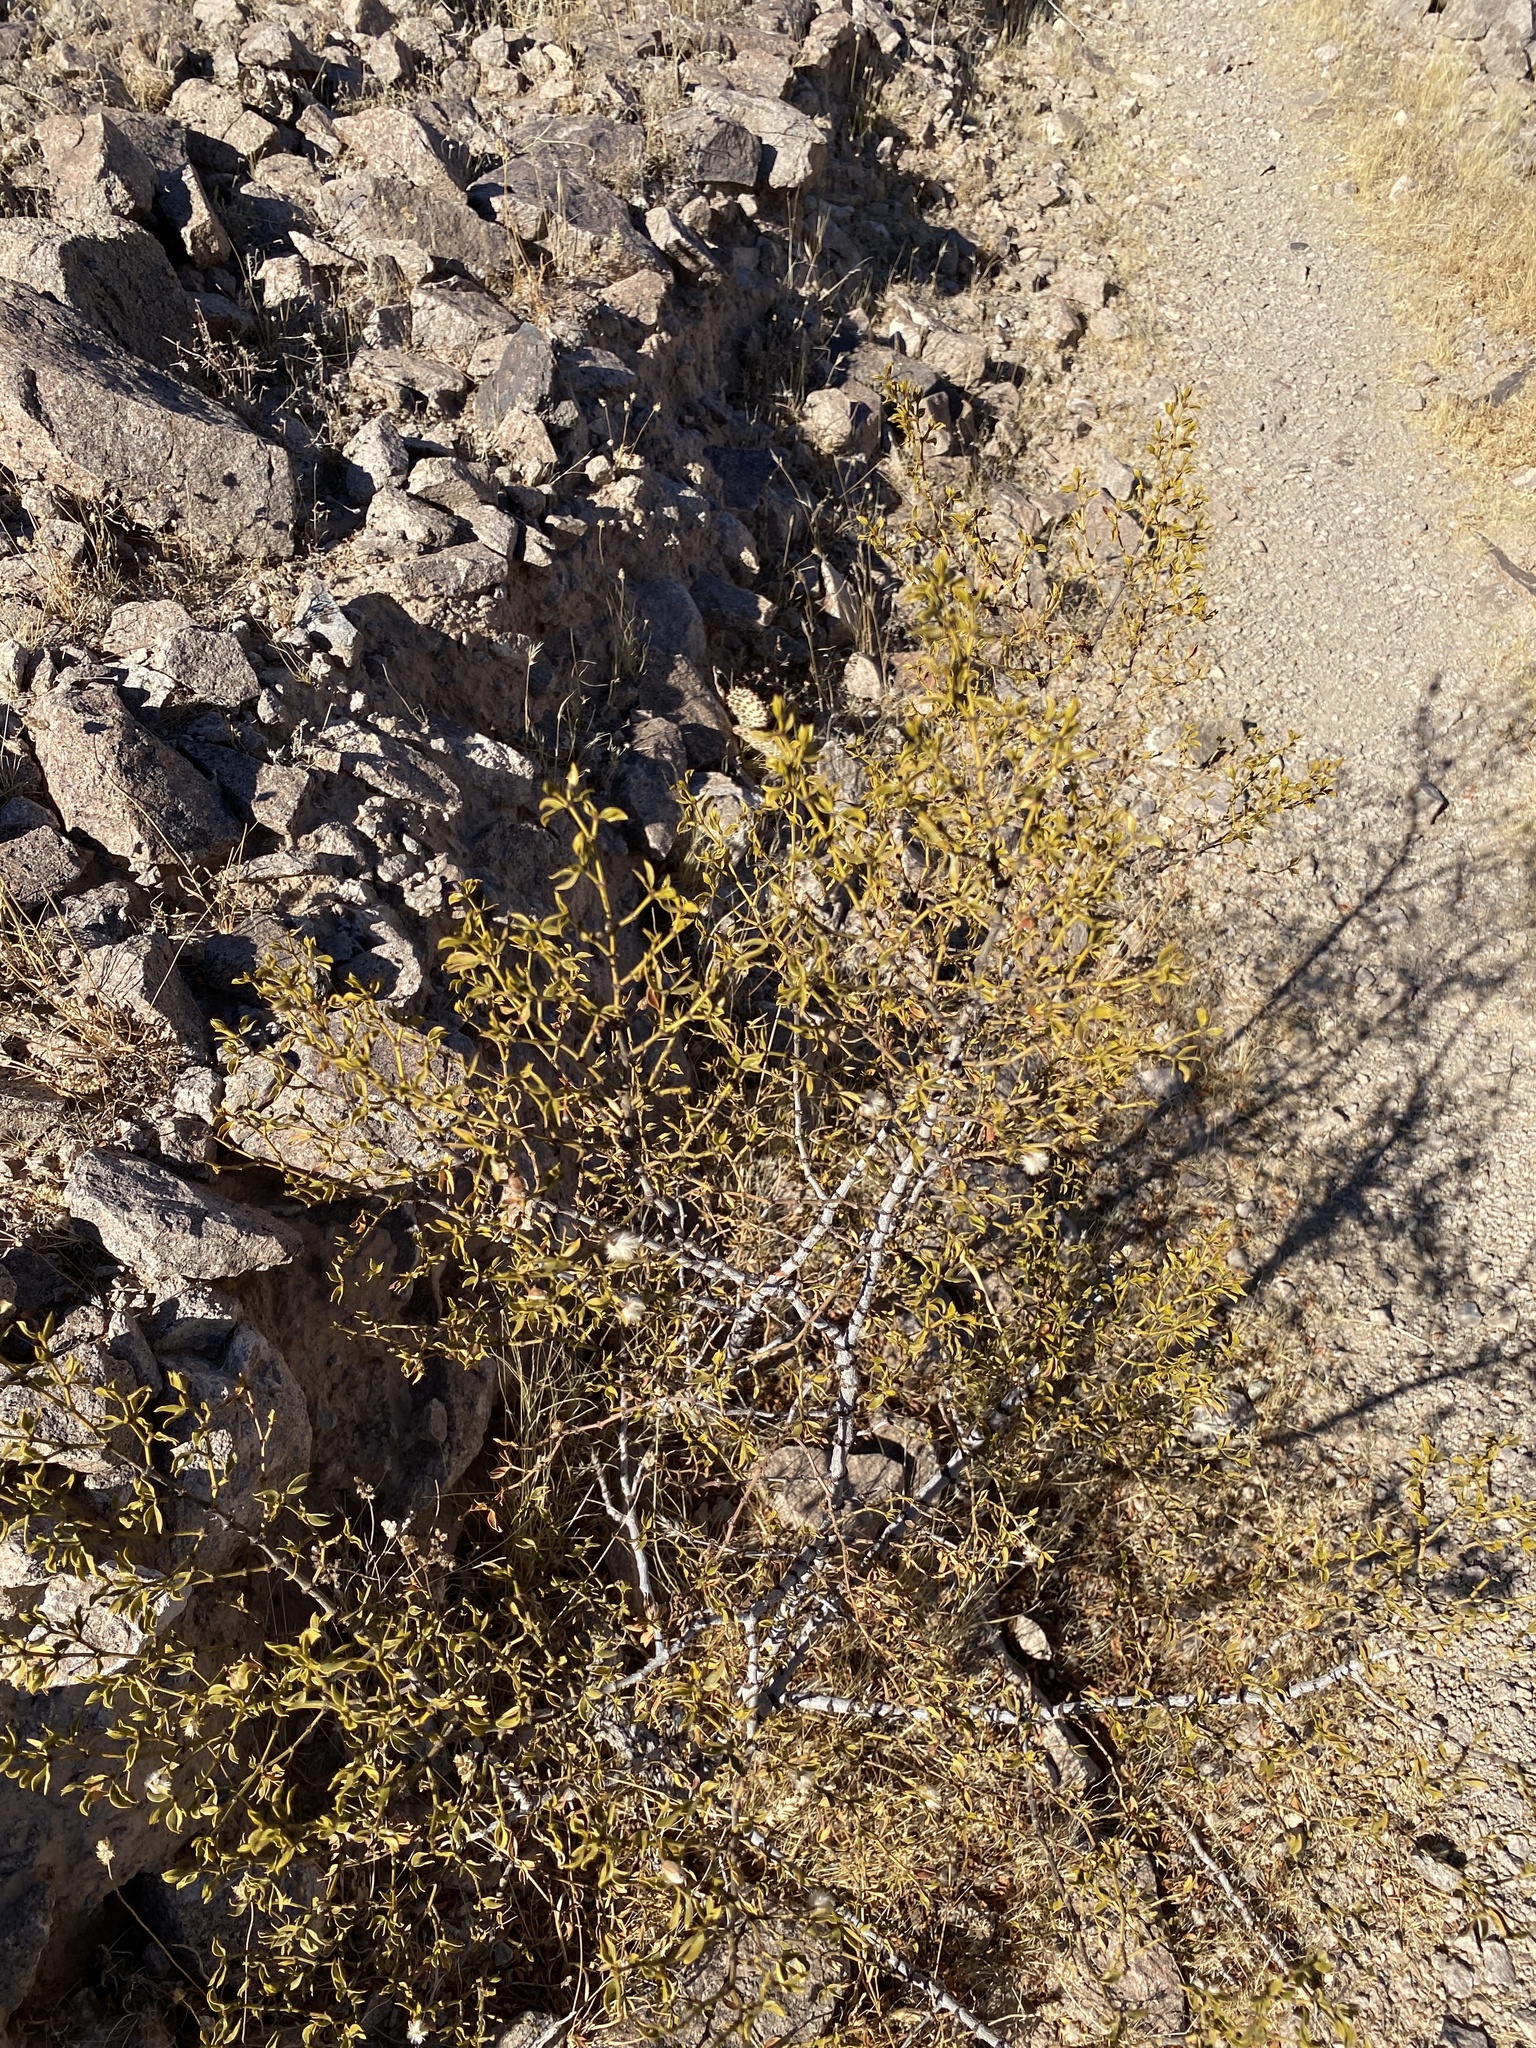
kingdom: Plantae
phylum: Tracheophyta
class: Magnoliopsida
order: Zygophyllales
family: Zygophyllaceae
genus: Larrea
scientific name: Larrea tridentata
